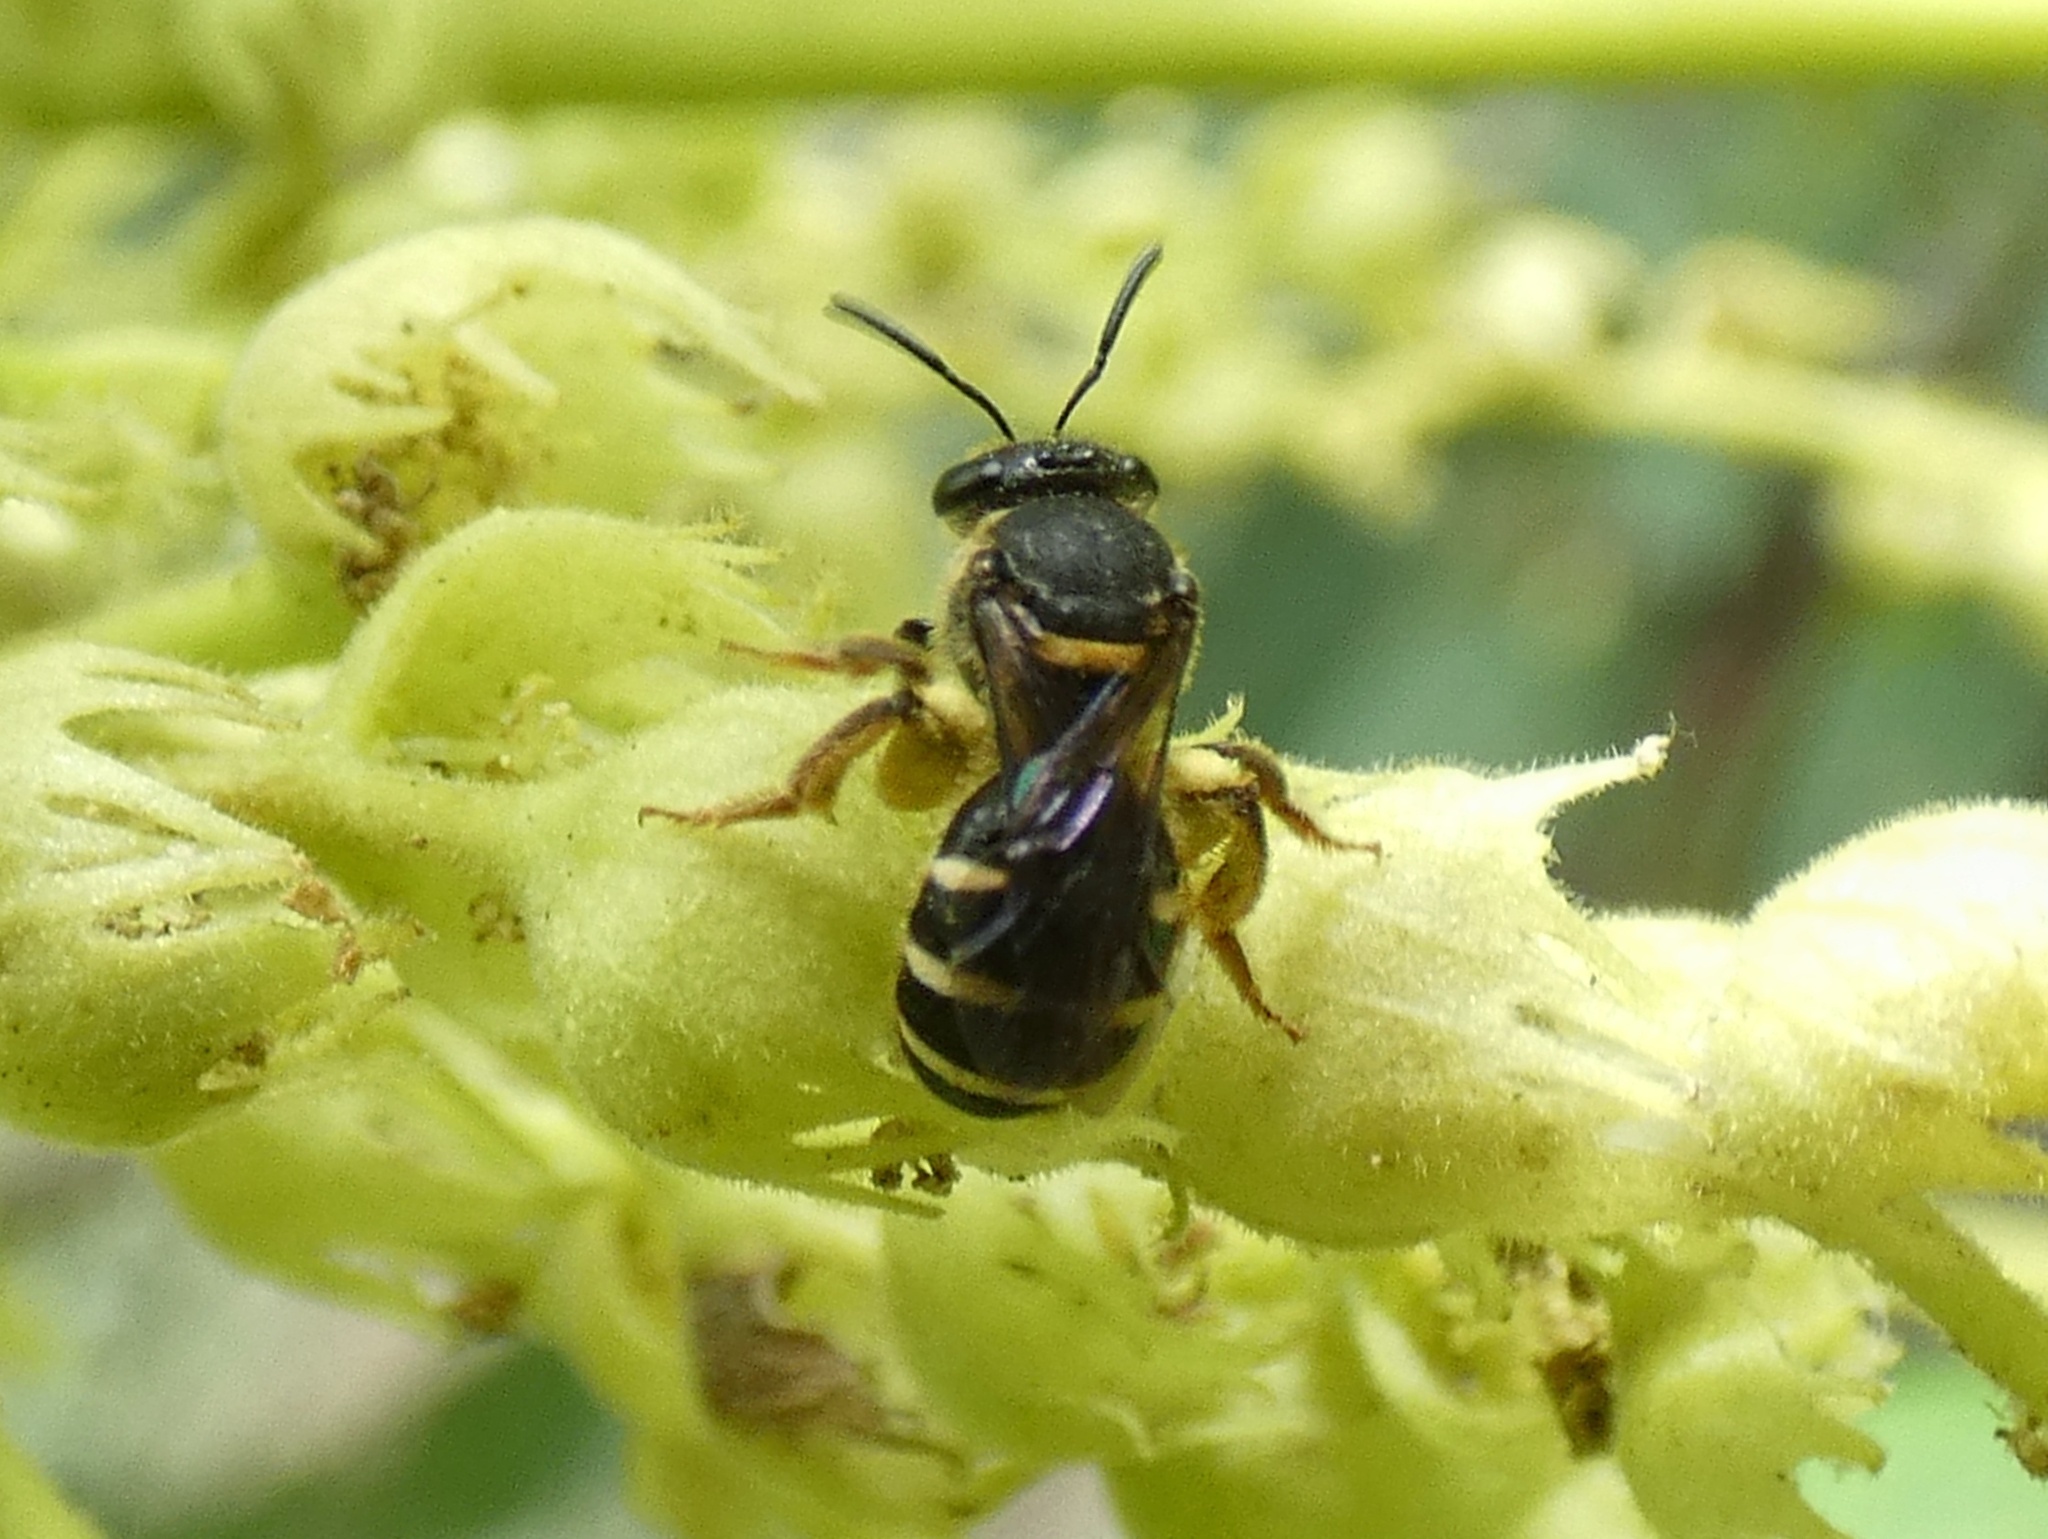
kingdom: Animalia
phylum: Arthropoda
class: Insecta
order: Hymenoptera
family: Halictidae
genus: Patellapis
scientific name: Patellapis stirlingi
